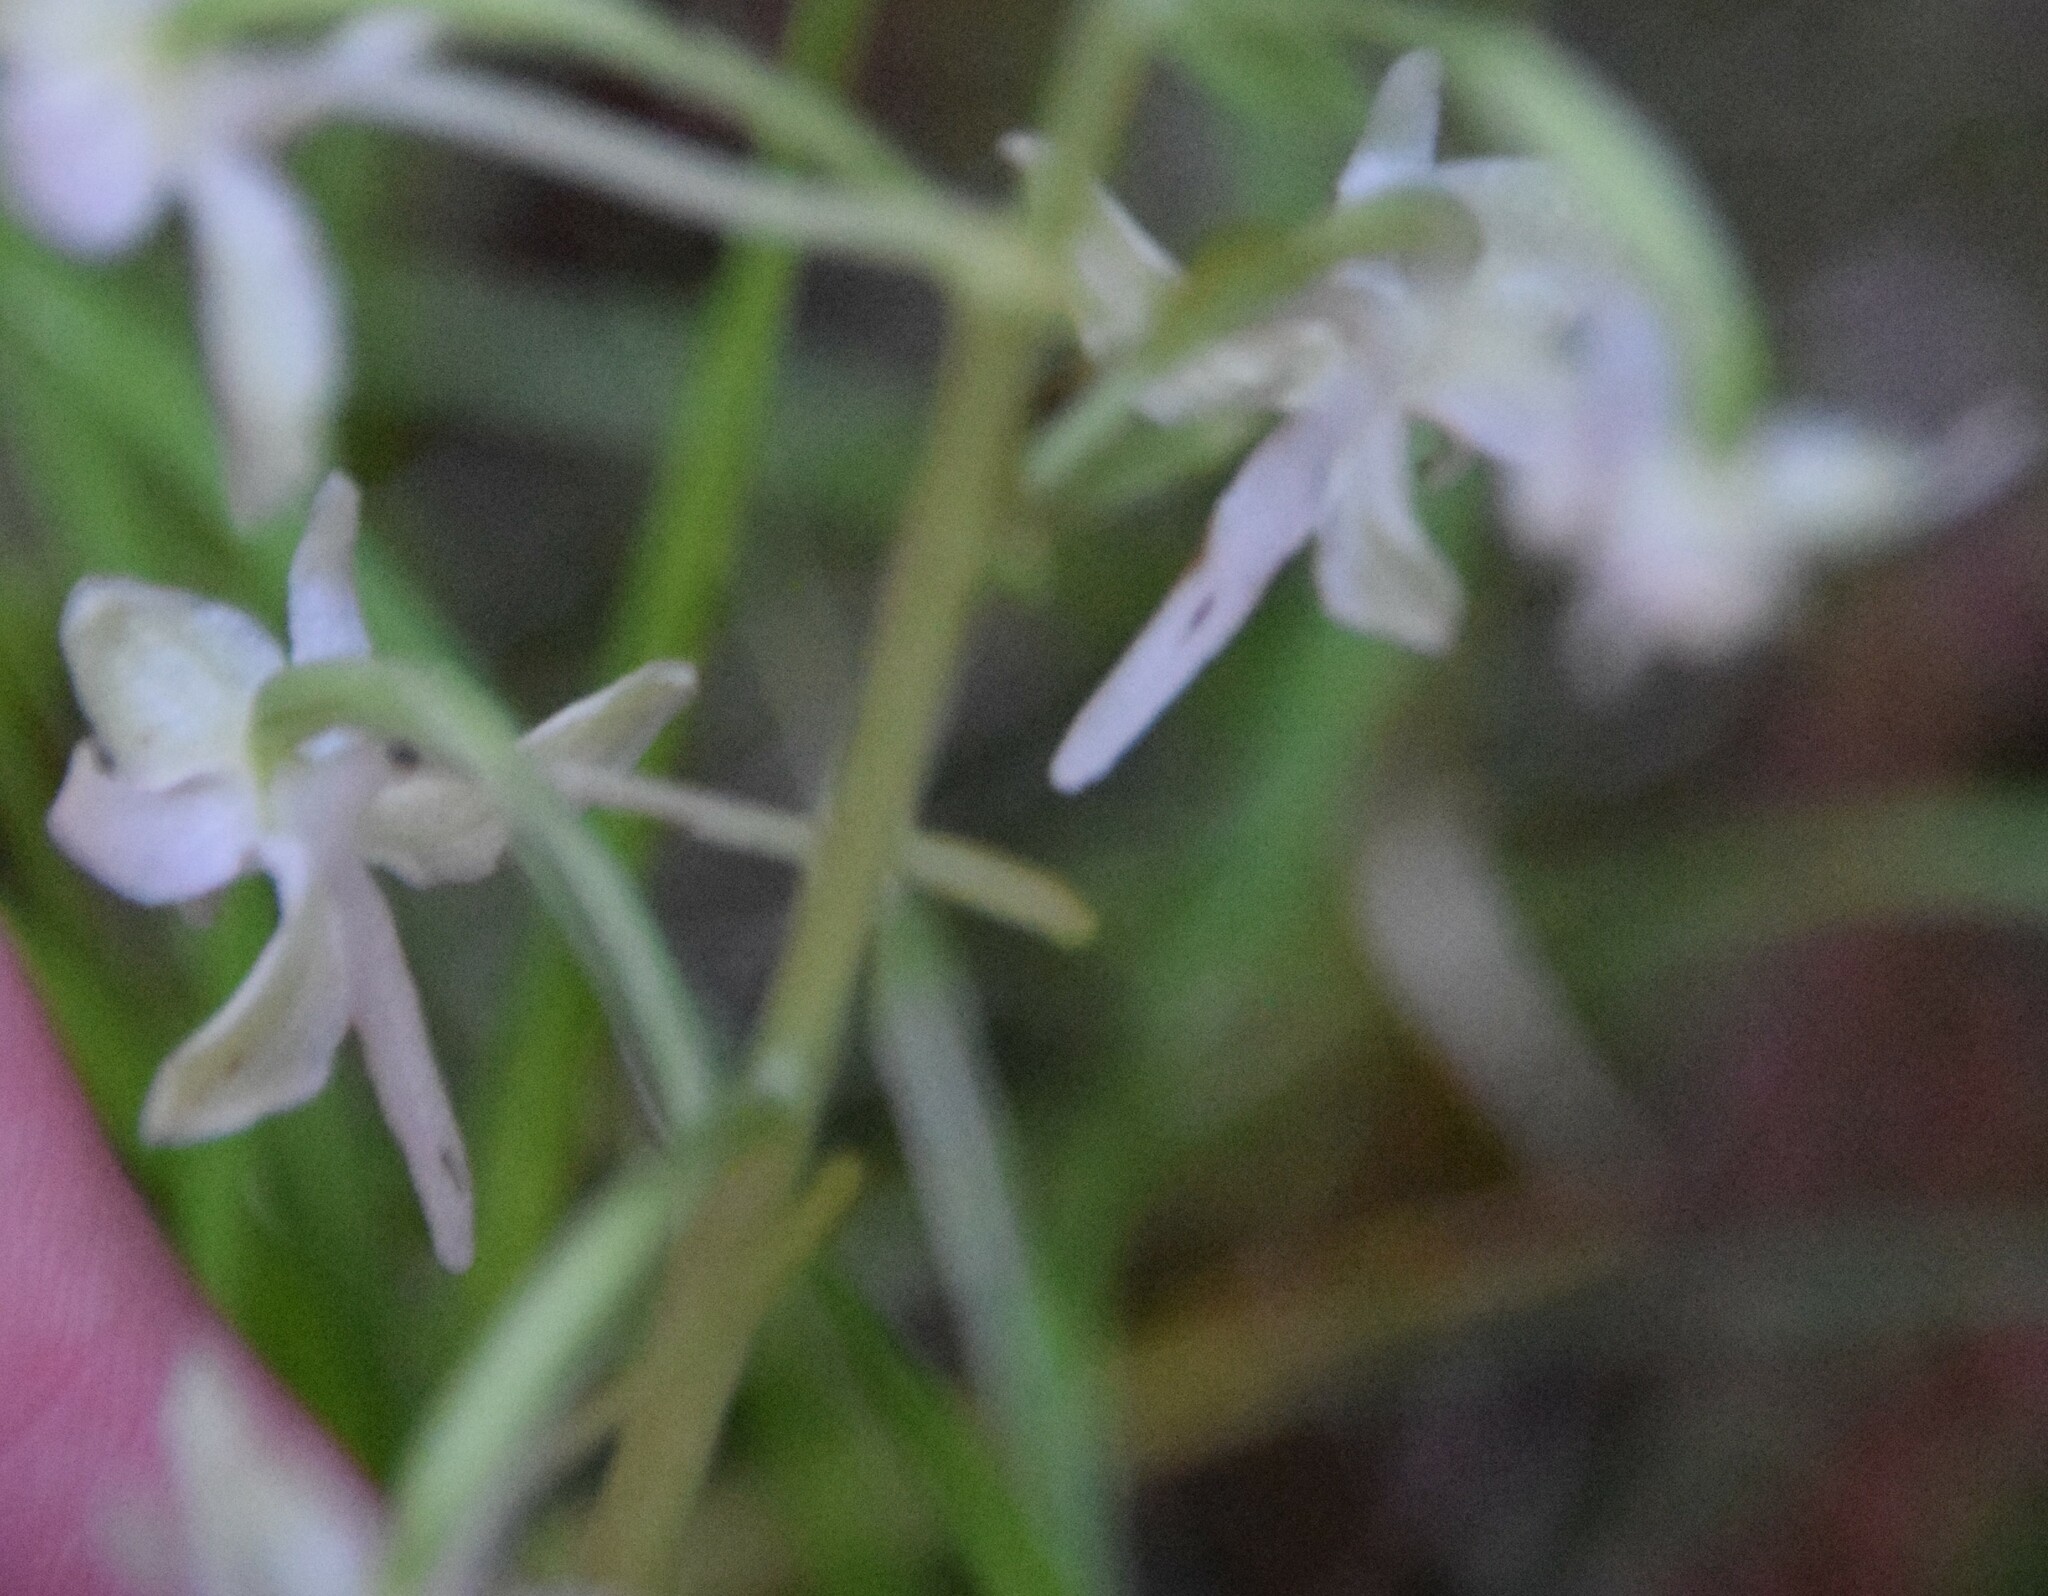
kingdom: Plantae
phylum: Tracheophyta
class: Liliopsida
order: Asparagales
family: Orchidaceae
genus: Platanthera
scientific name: Platanthera orbiculata
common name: Large round-leaved orchid
